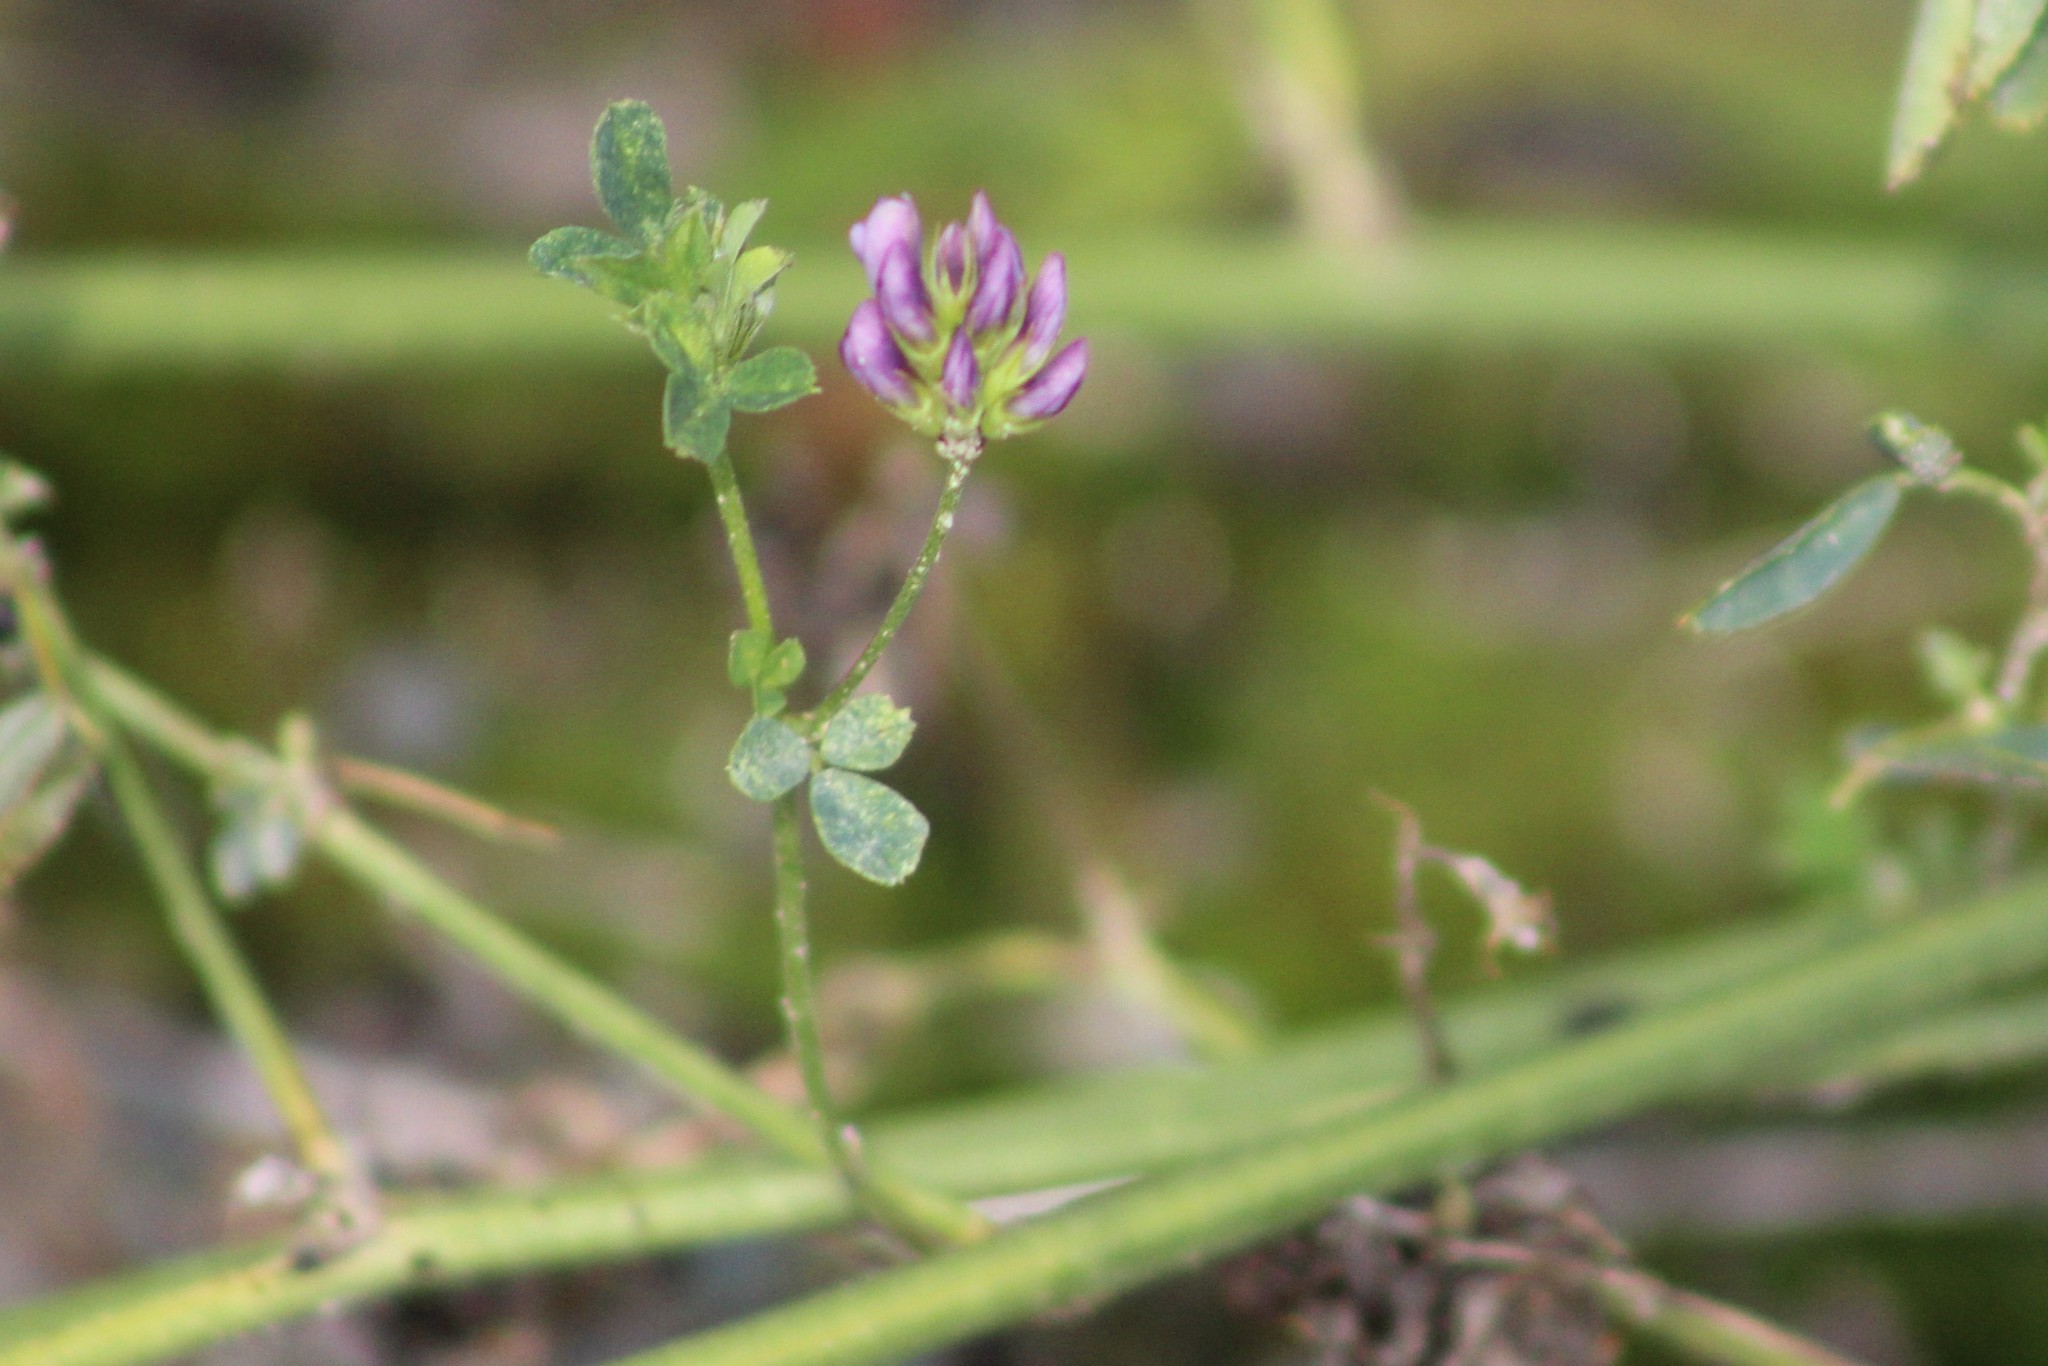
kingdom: Plantae
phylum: Tracheophyta
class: Magnoliopsida
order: Fabales
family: Fabaceae
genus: Medicago
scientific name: Medicago varia
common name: Sand lucerne
